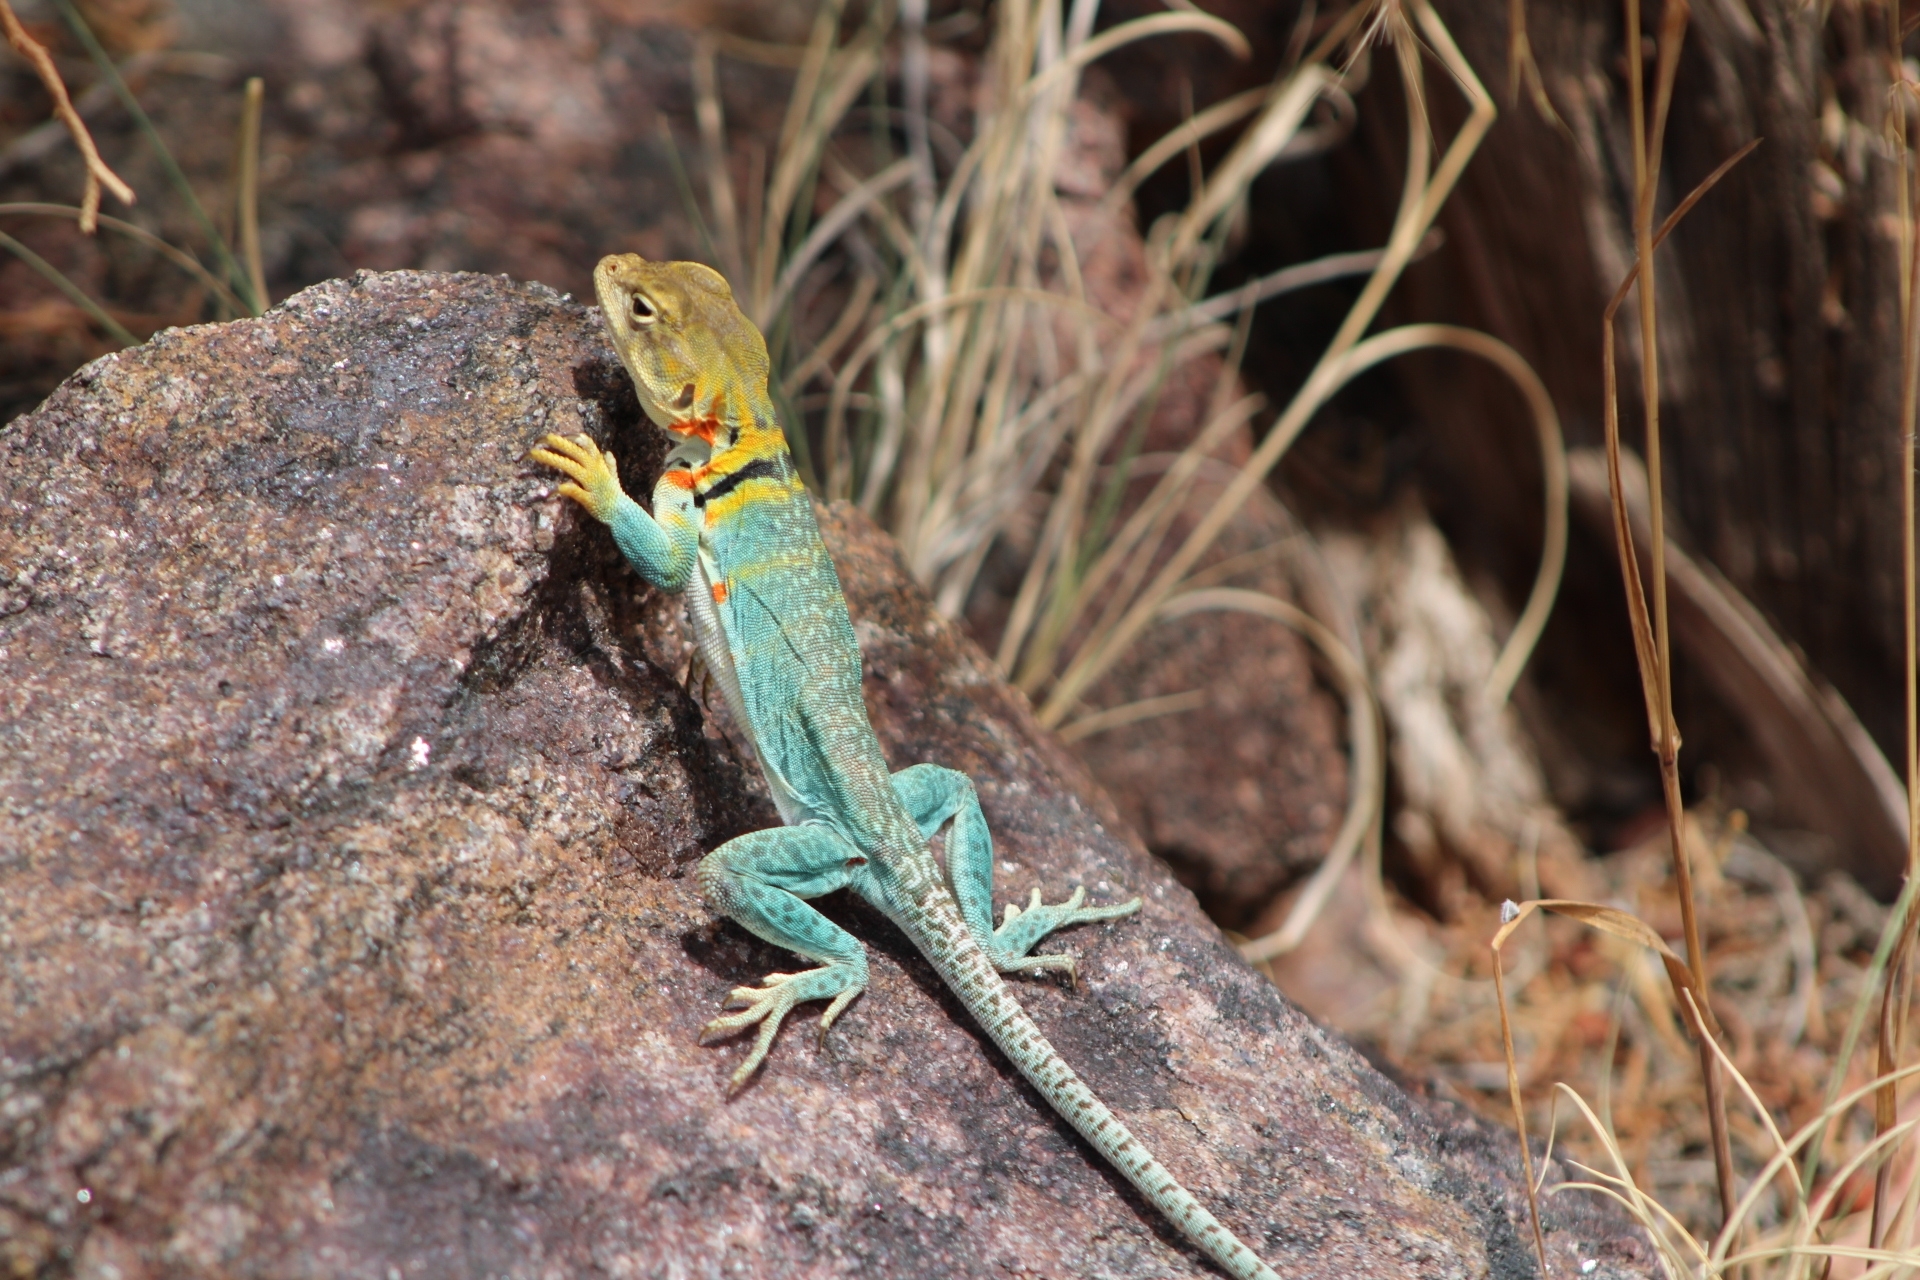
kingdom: Animalia
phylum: Chordata
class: Squamata
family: Crotaphytidae
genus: Crotaphytus
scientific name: Crotaphytus collaris
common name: Collared lizard
